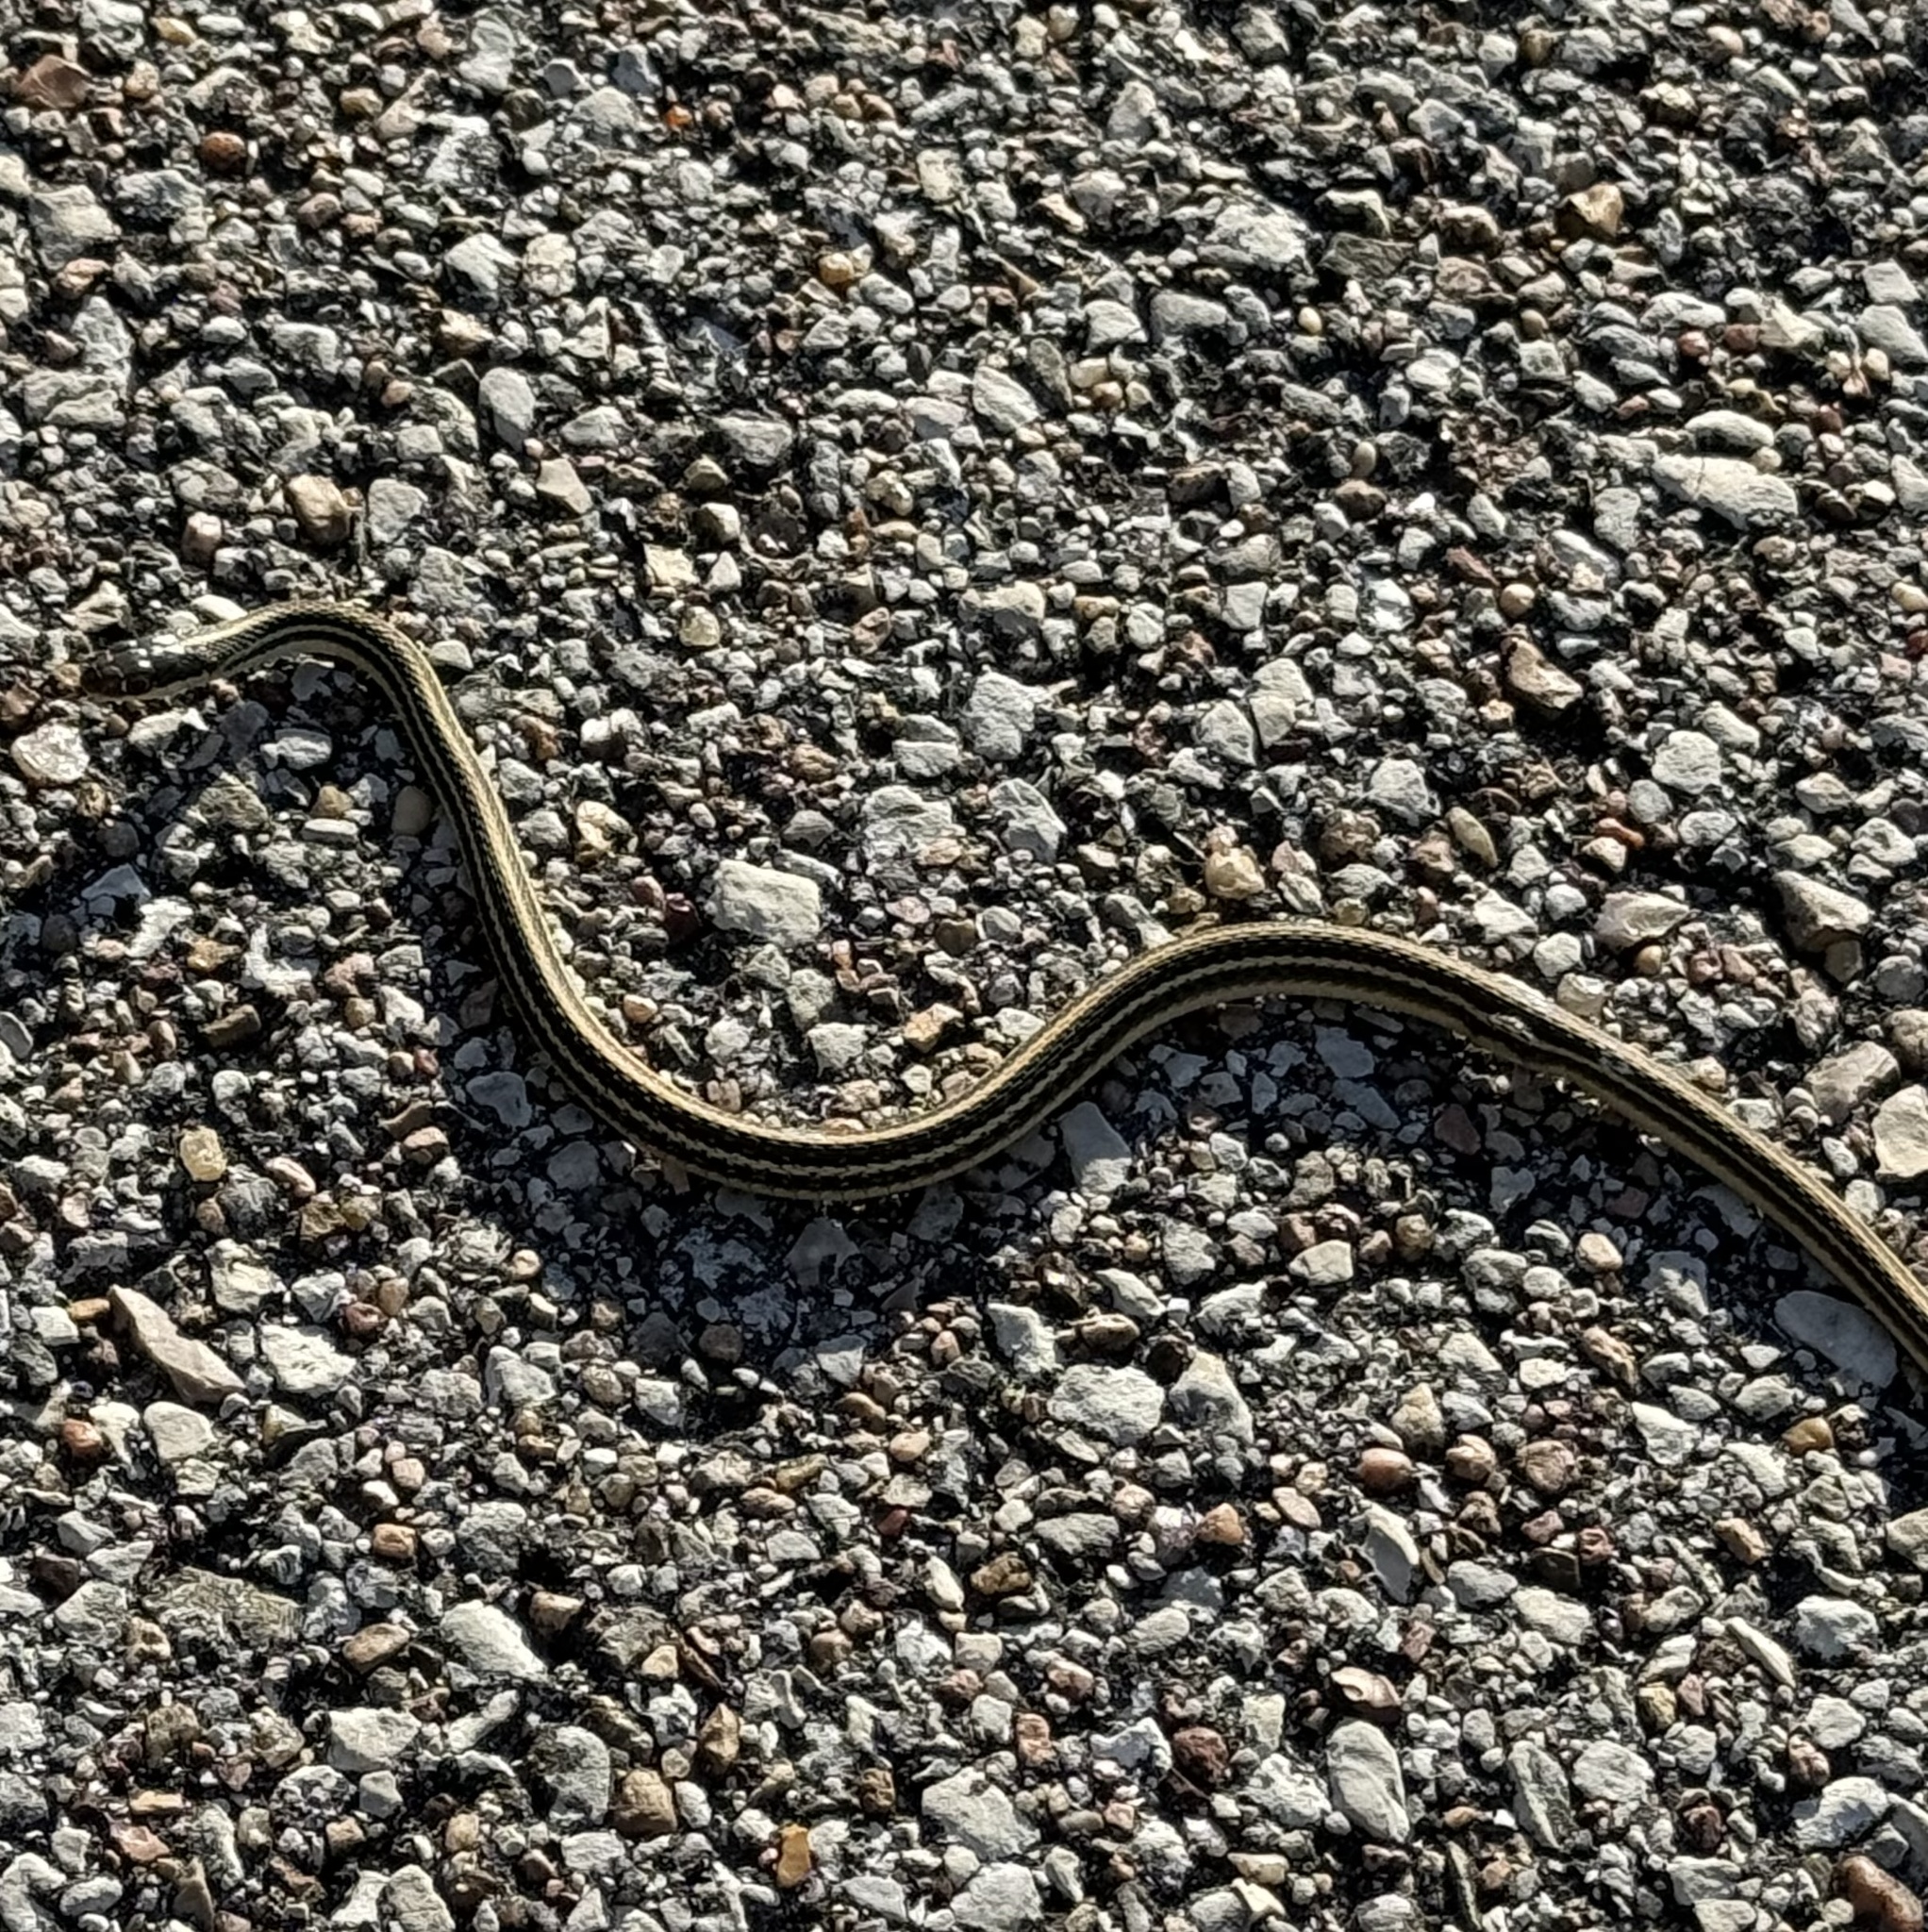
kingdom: Animalia
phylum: Chordata
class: Squamata
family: Colubridae
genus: Thamnophis
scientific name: Thamnophis proximus
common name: Western ribbon snake
